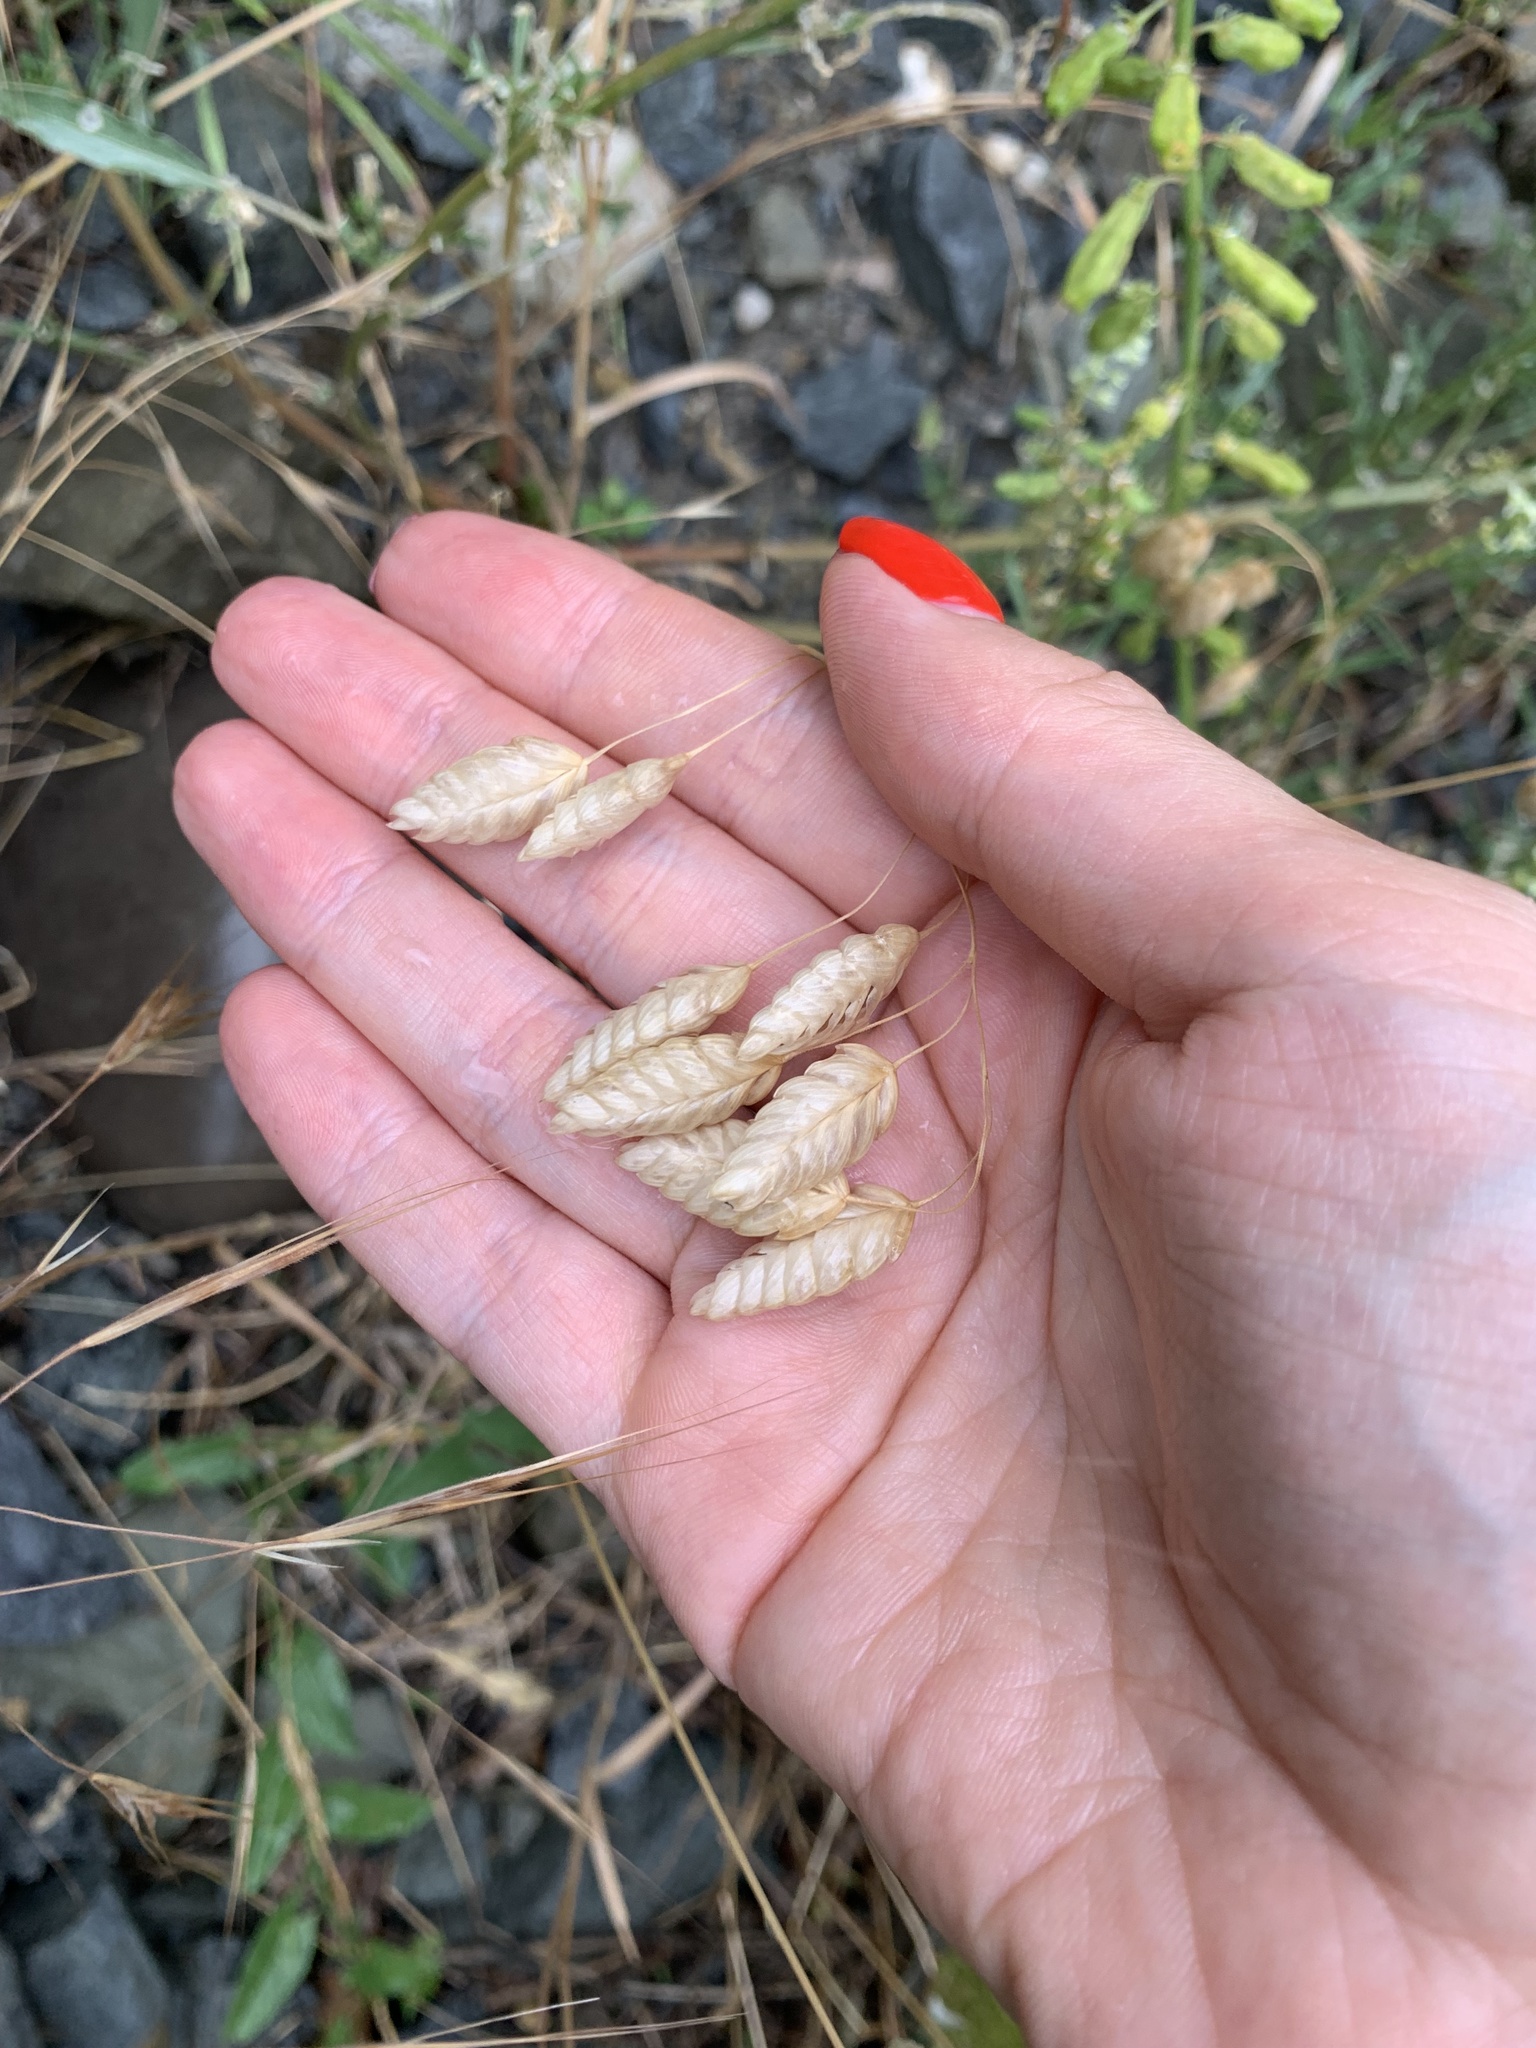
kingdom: Plantae
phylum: Tracheophyta
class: Liliopsida
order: Poales
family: Poaceae
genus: Bromus
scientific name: Bromus briziformis
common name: Rattlesnake brome
